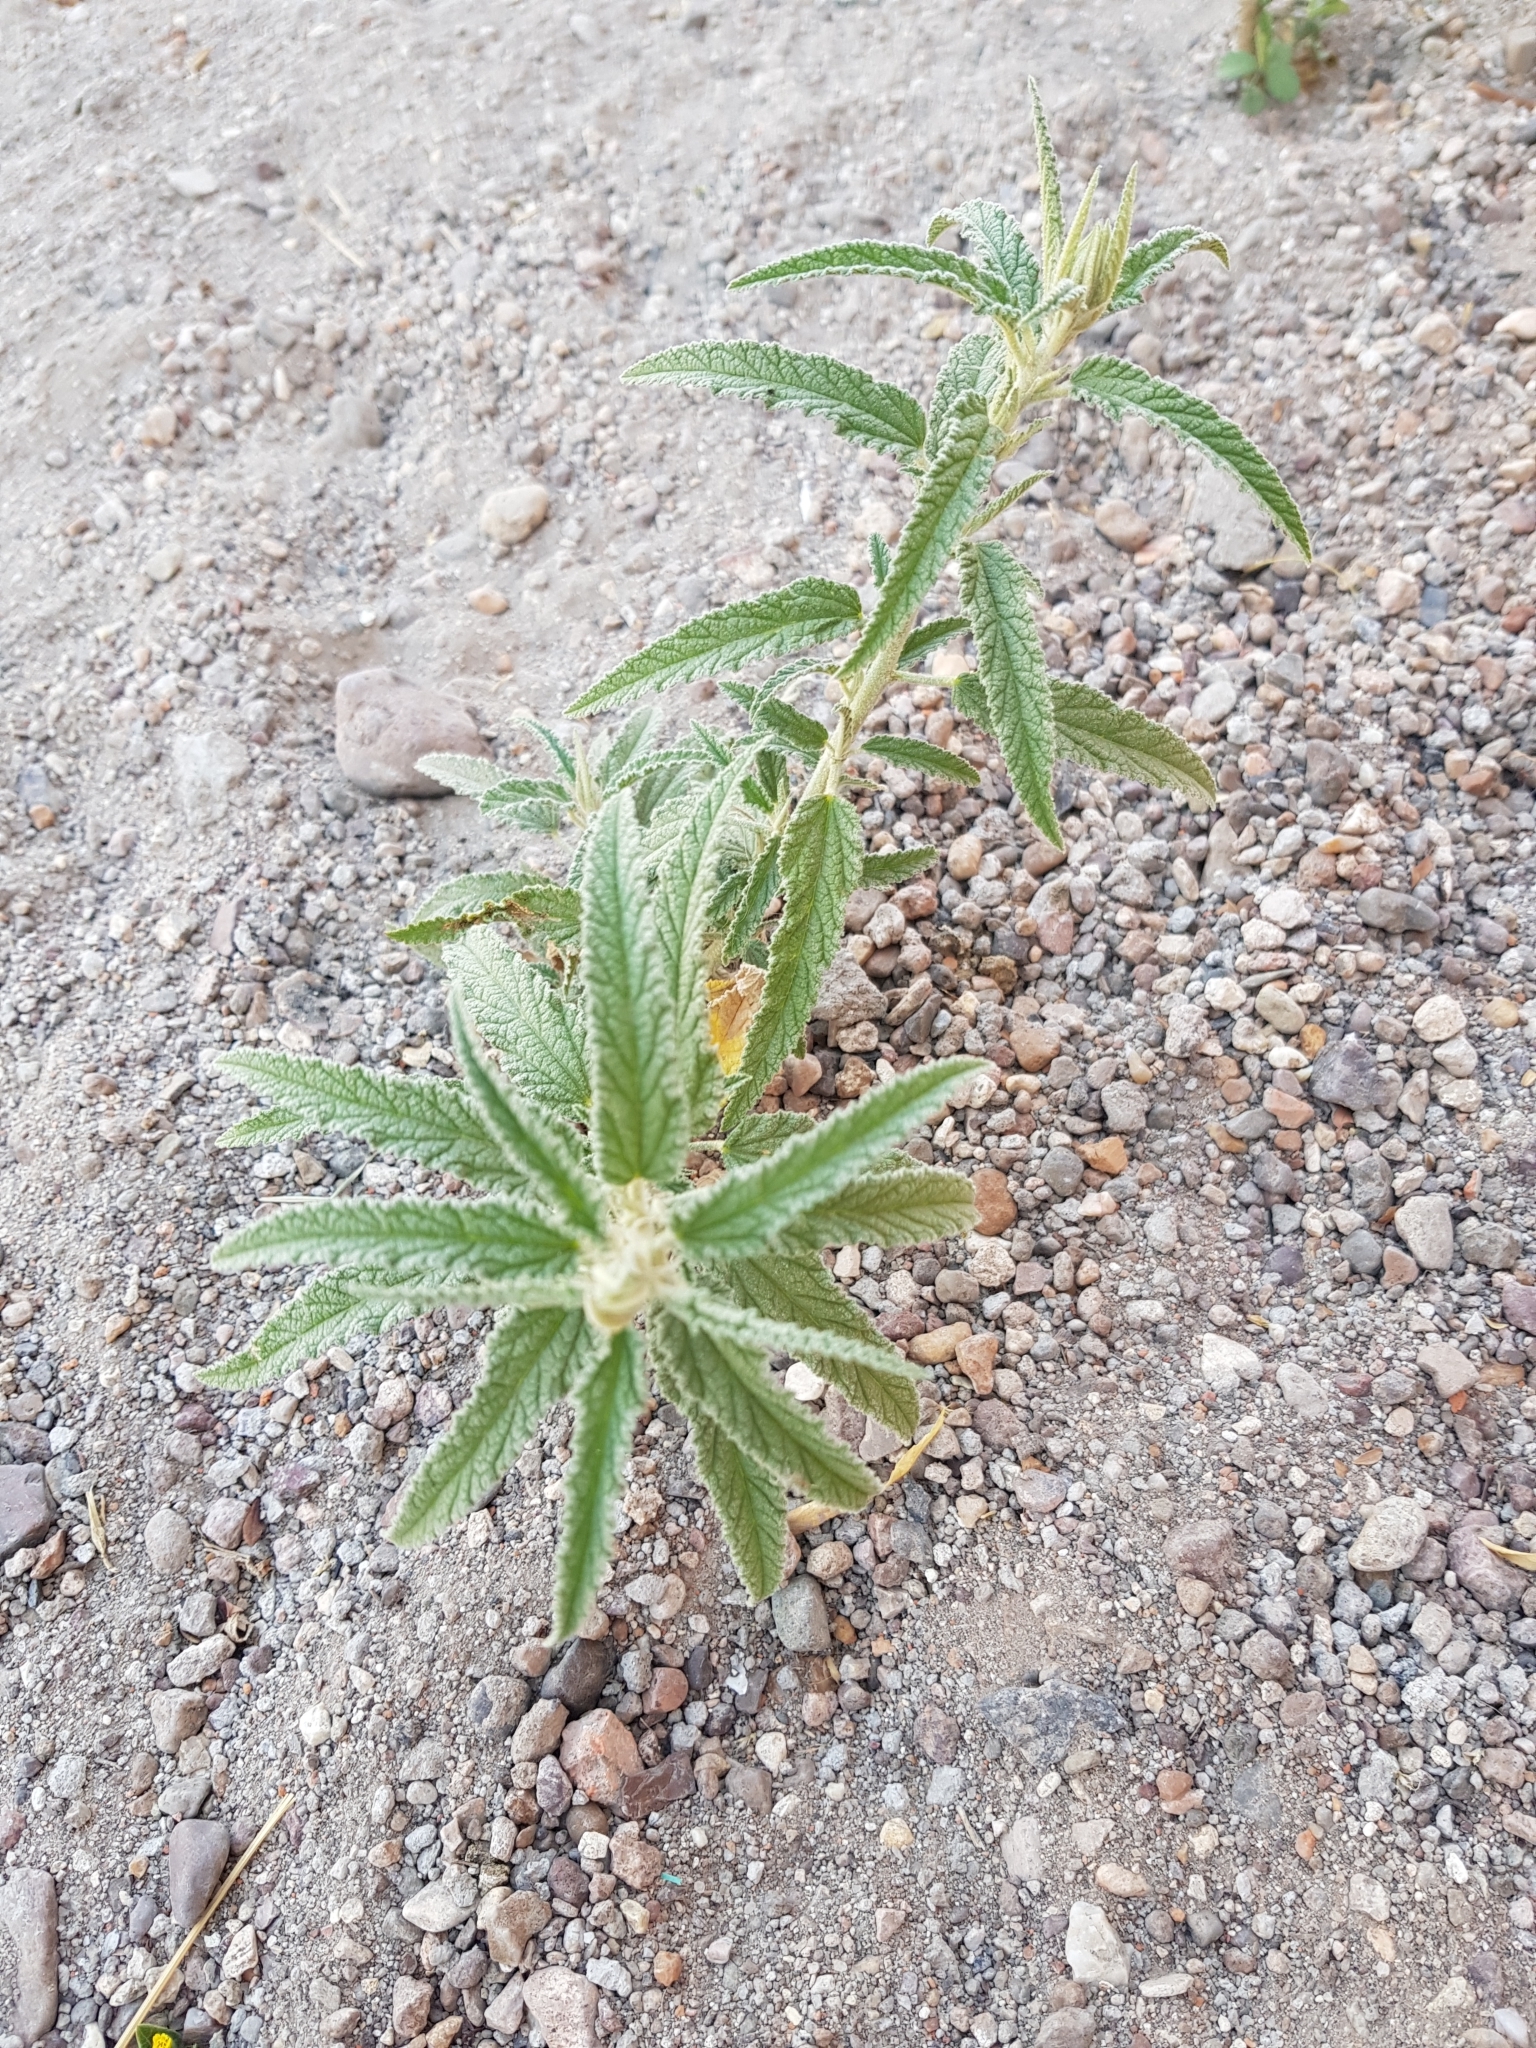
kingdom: Plantae
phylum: Tracheophyta
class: Magnoliopsida
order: Malvales
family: Malvaceae
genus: Sphaeralcea
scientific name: Sphaeralcea angustifolia
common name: Copper globe-mallow
